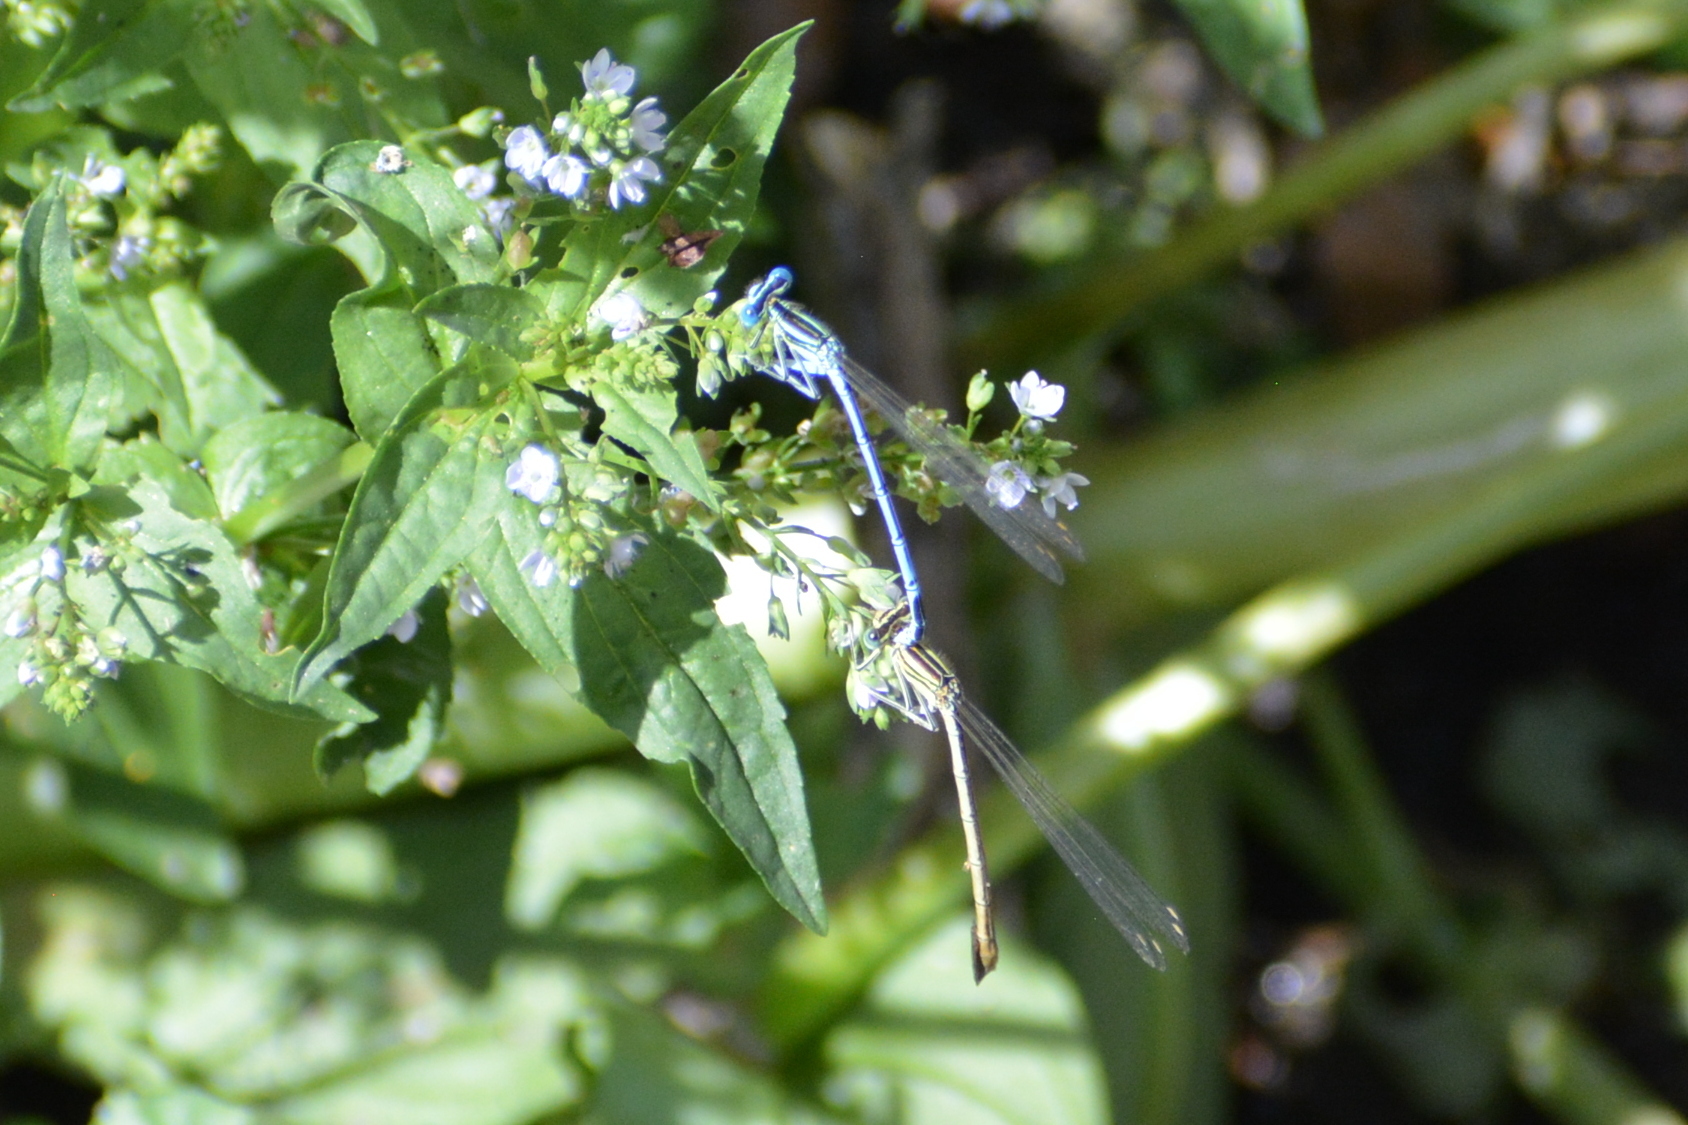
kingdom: Animalia
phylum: Arthropoda
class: Insecta
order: Odonata
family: Platycnemididae
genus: Platycnemis
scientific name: Platycnemis pennipes
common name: White-legged damselfly
